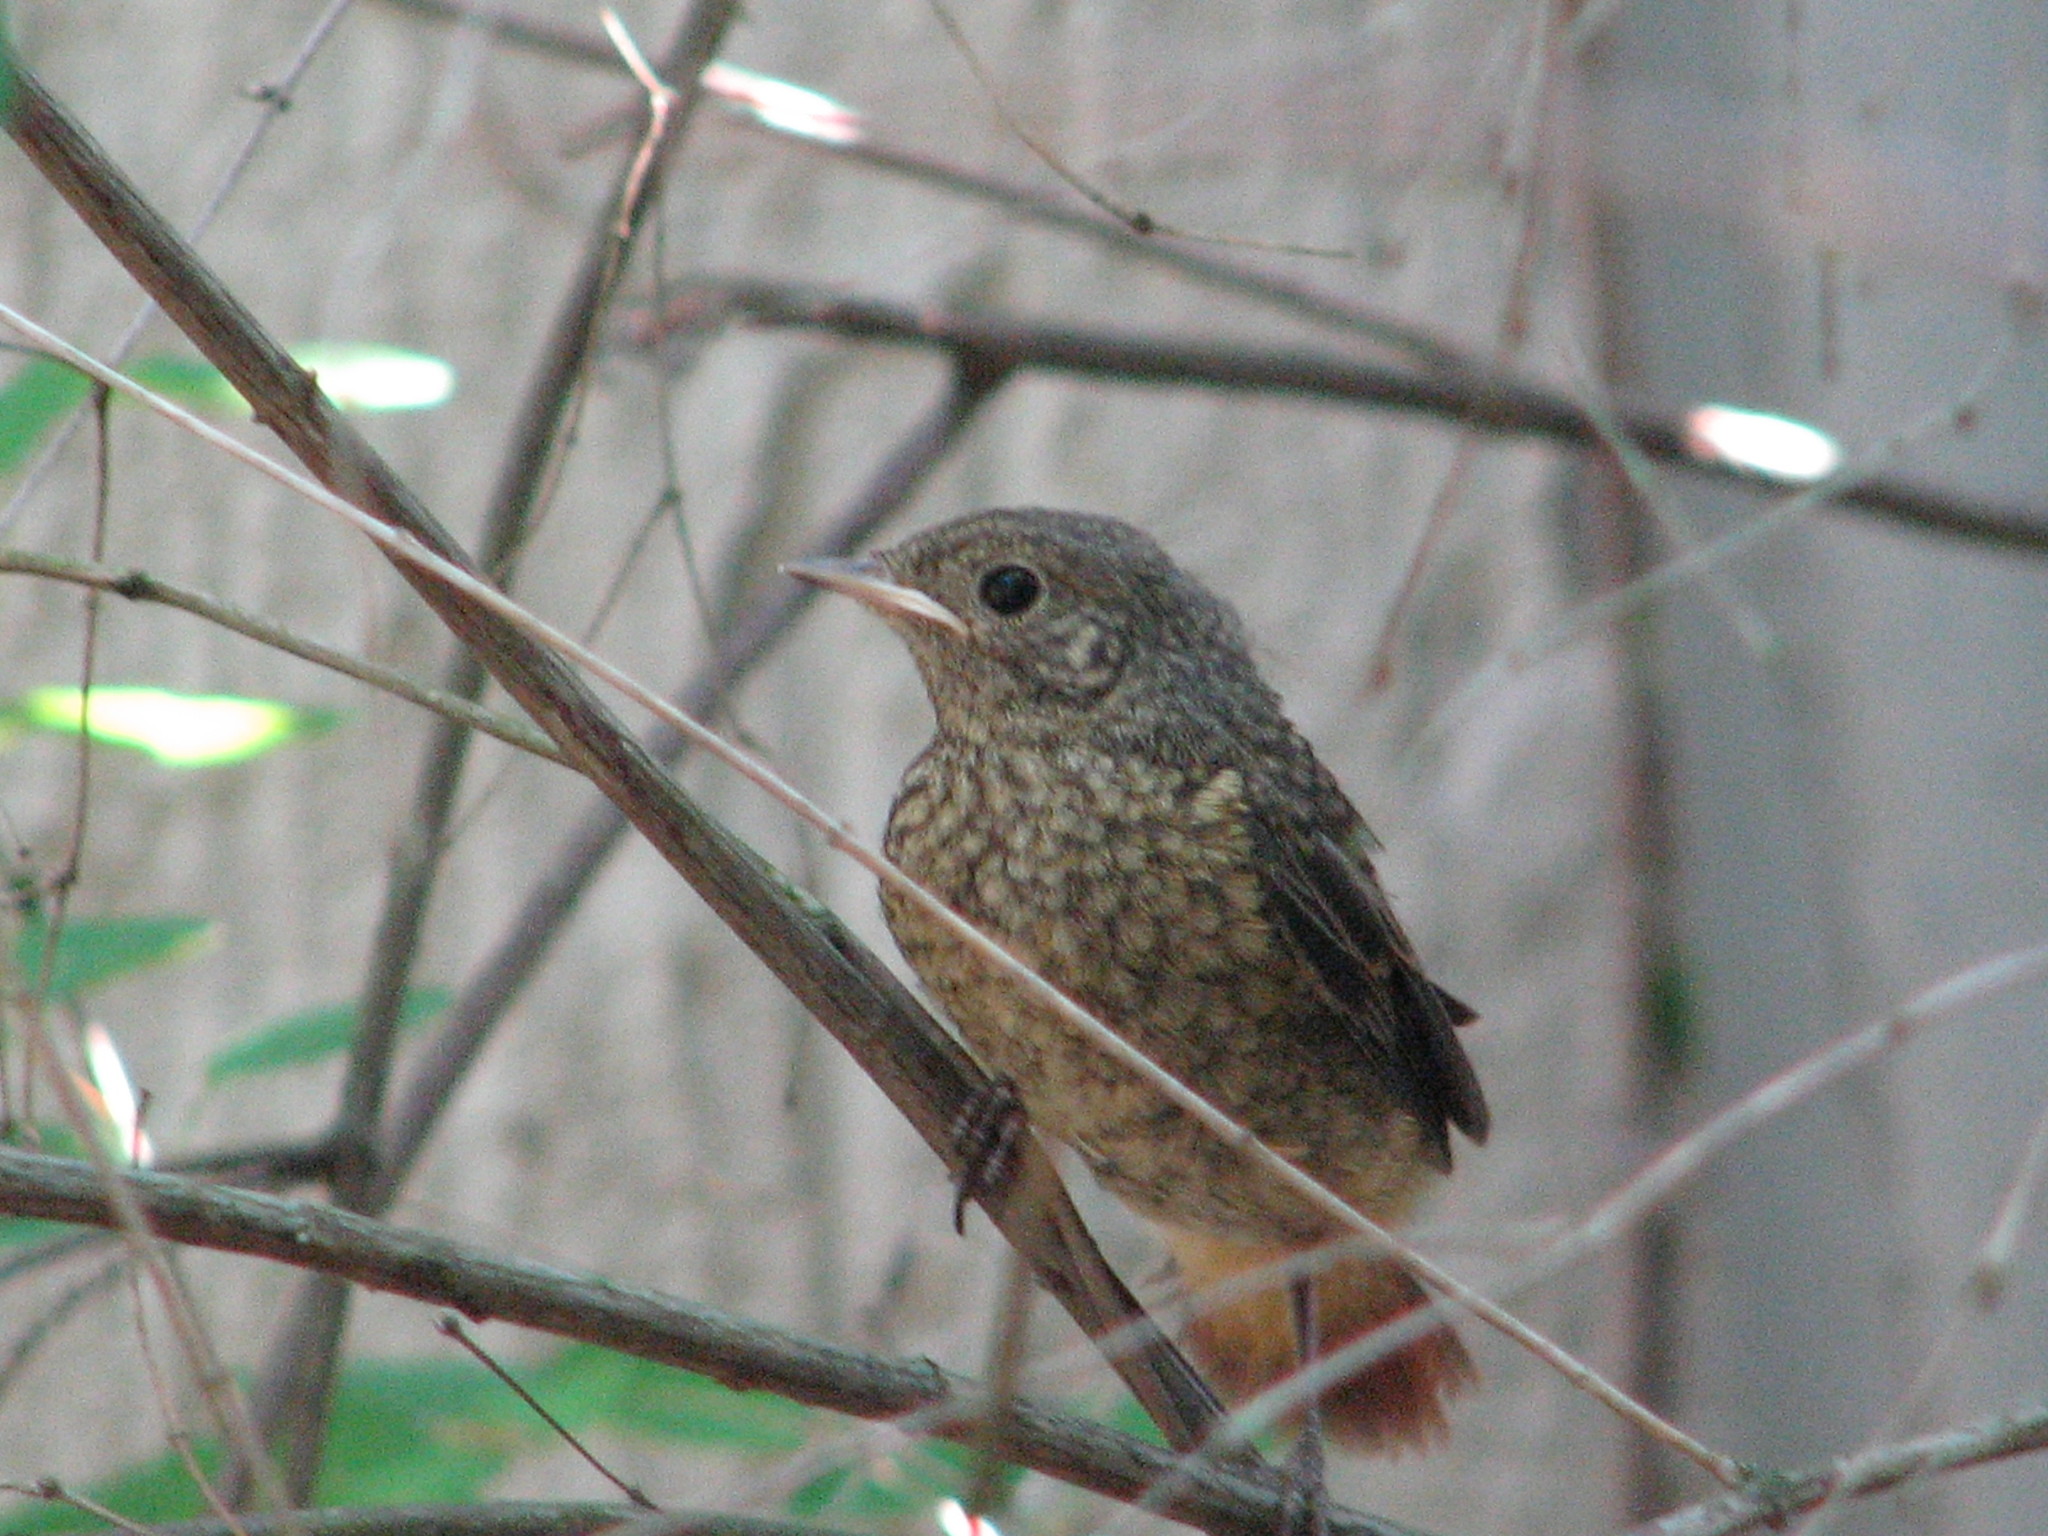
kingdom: Animalia
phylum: Chordata
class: Aves
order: Passeriformes
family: Muscicapidae
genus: Phoenicurus
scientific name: Phoenicurus phoenicurus
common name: Common redstart
